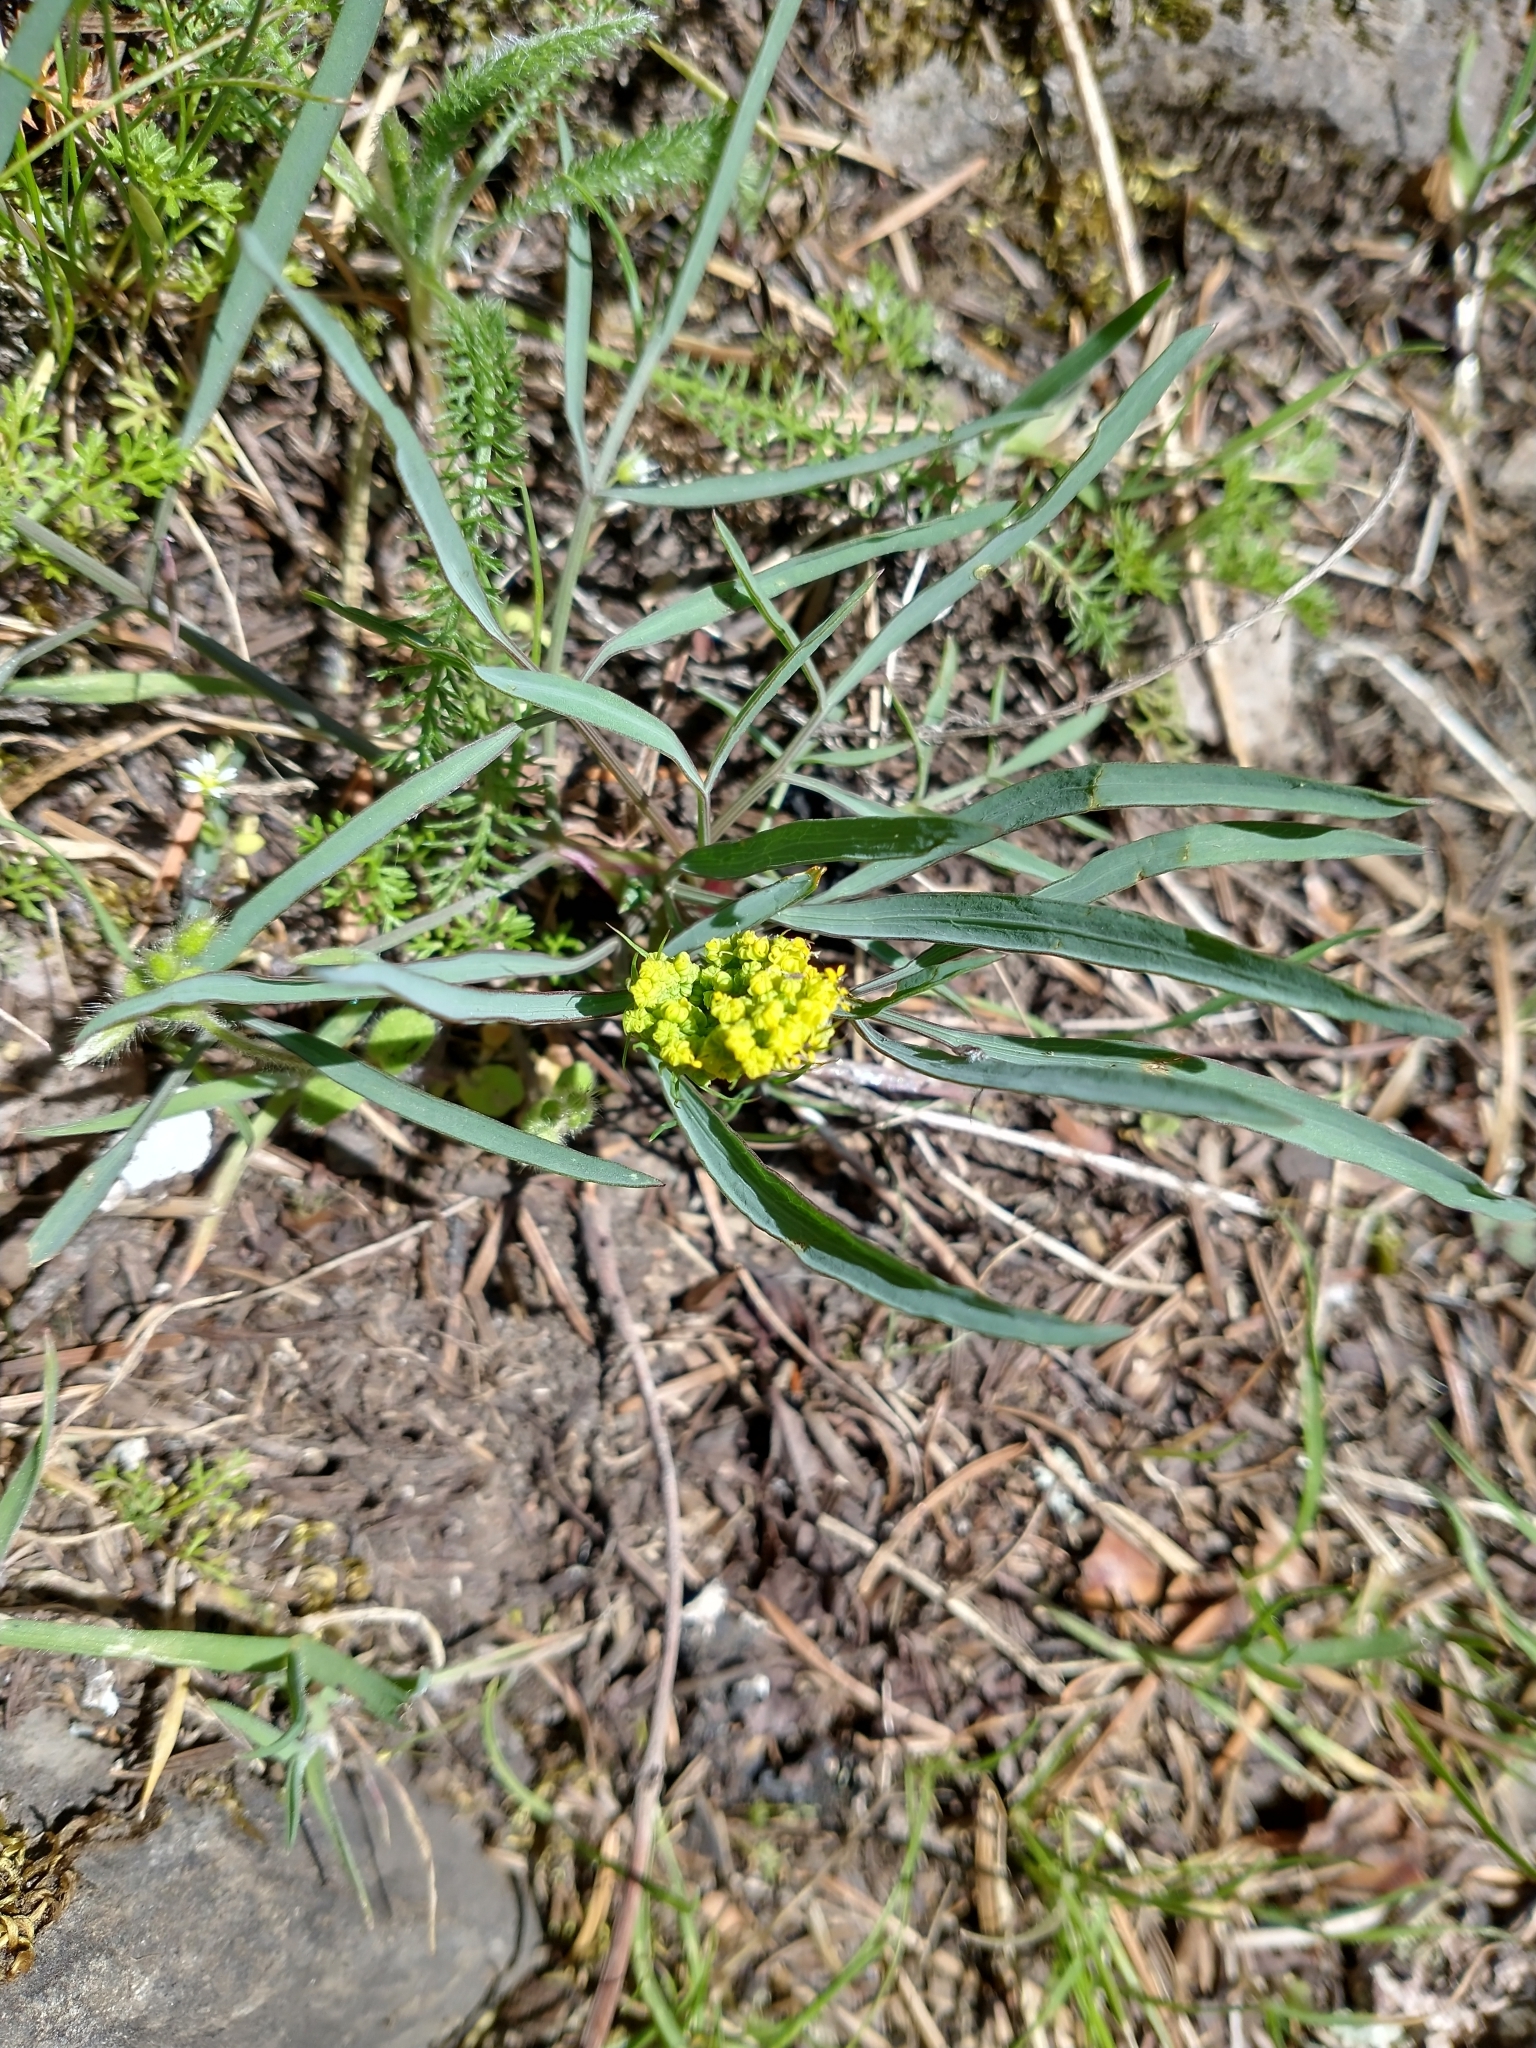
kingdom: Plantae
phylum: Tracheophyta
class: Magnoliopsida
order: Apiales
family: Apiaceae
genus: Lomatium
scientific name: Lomatium triternatum
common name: Ternate lomatium
